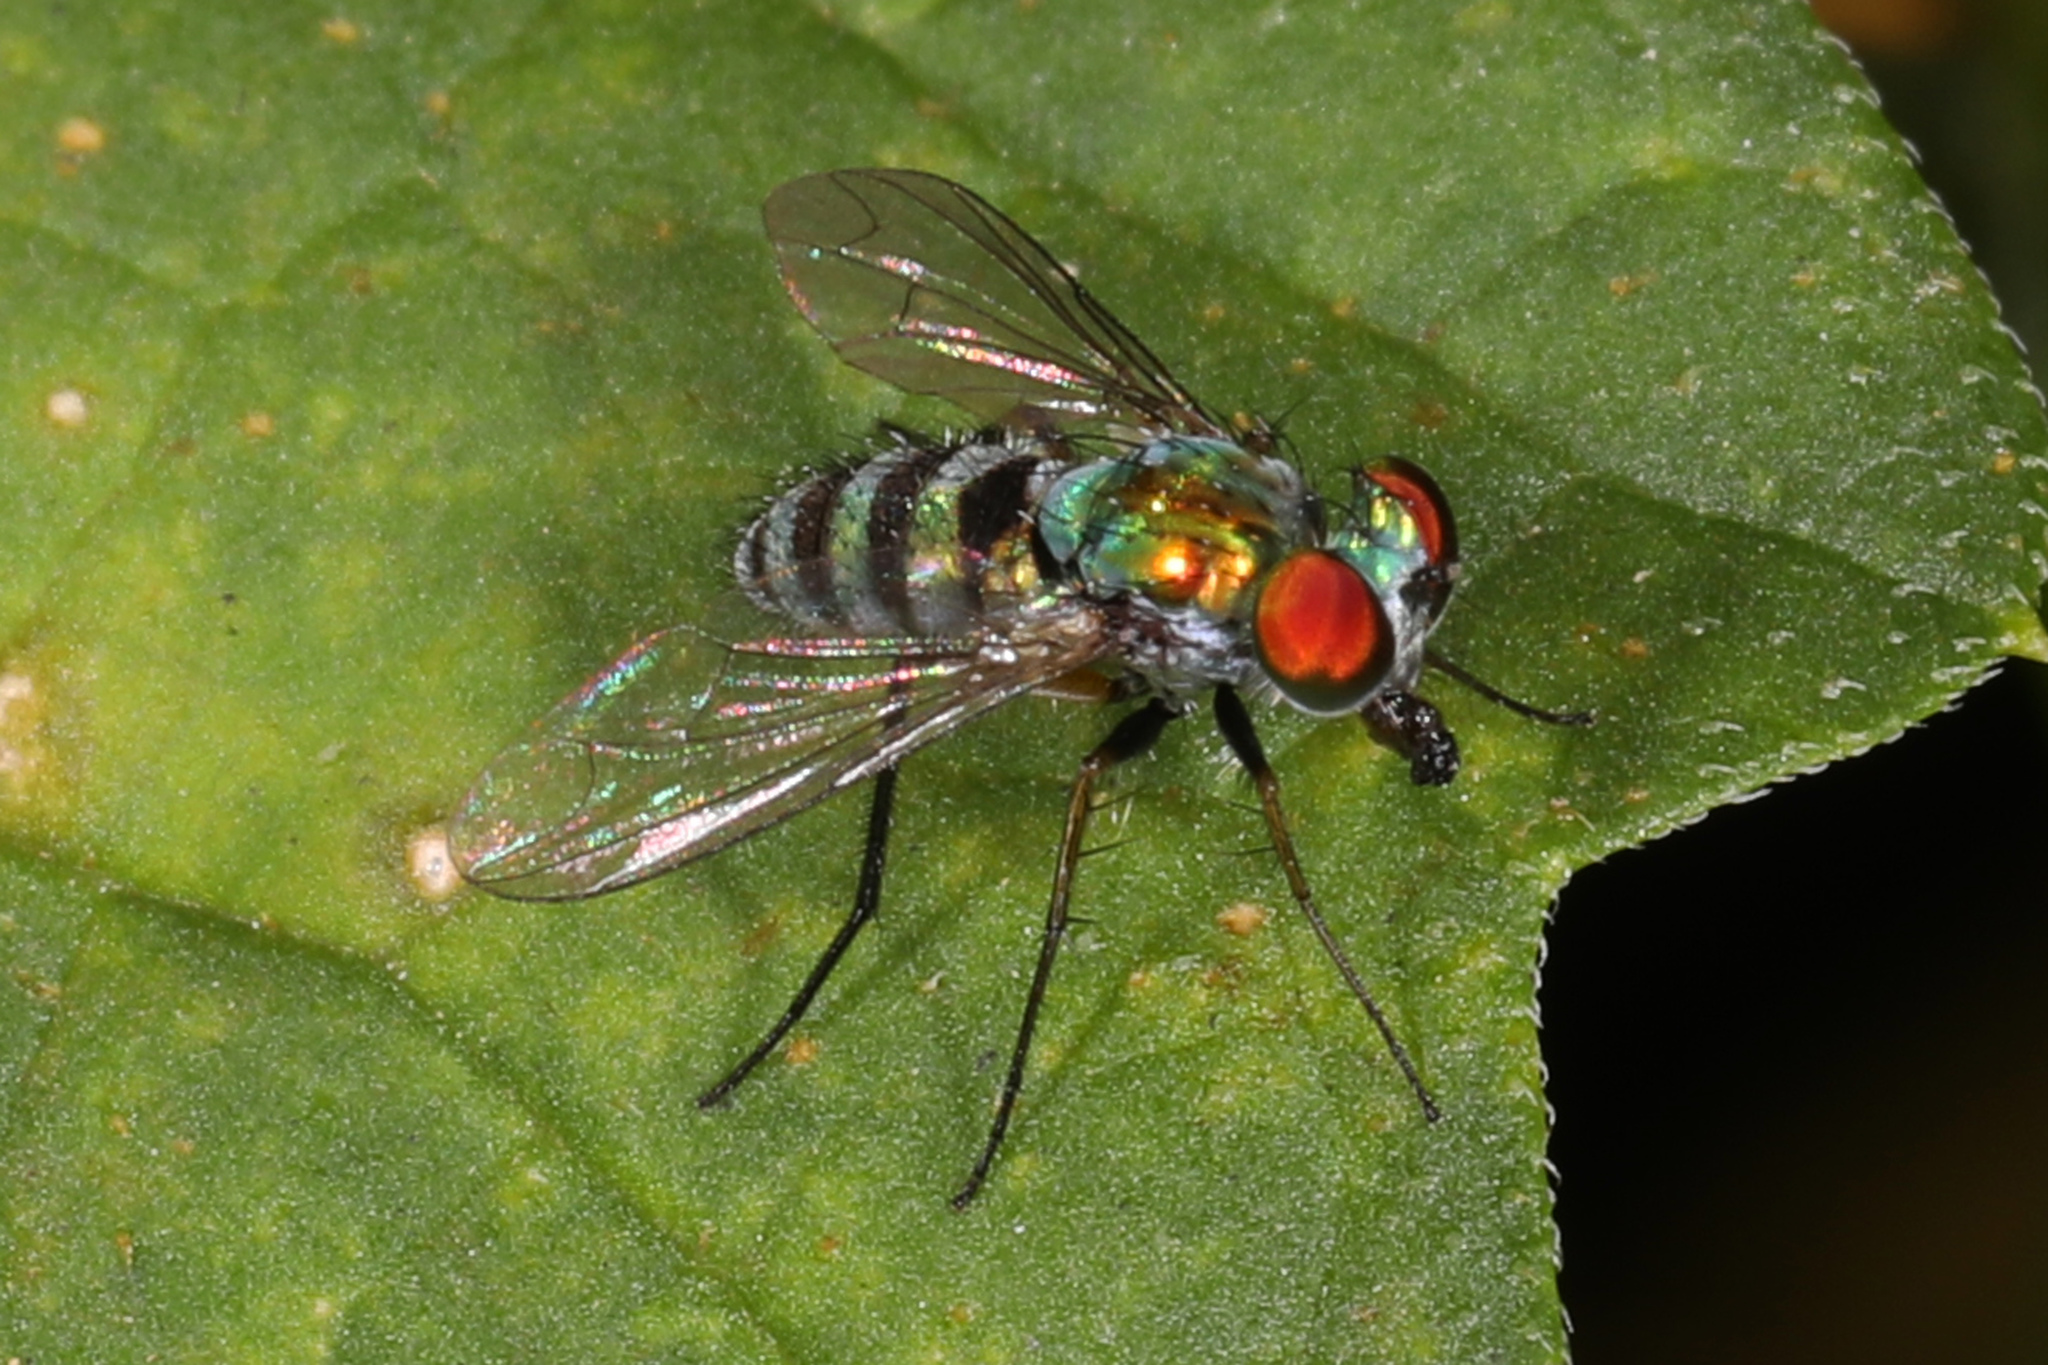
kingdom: Animalia
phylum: Arthropoda
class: Insecta
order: Diptera
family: Dolichopodidae
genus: Condylostylus
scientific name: Condylostylus pruinosus
